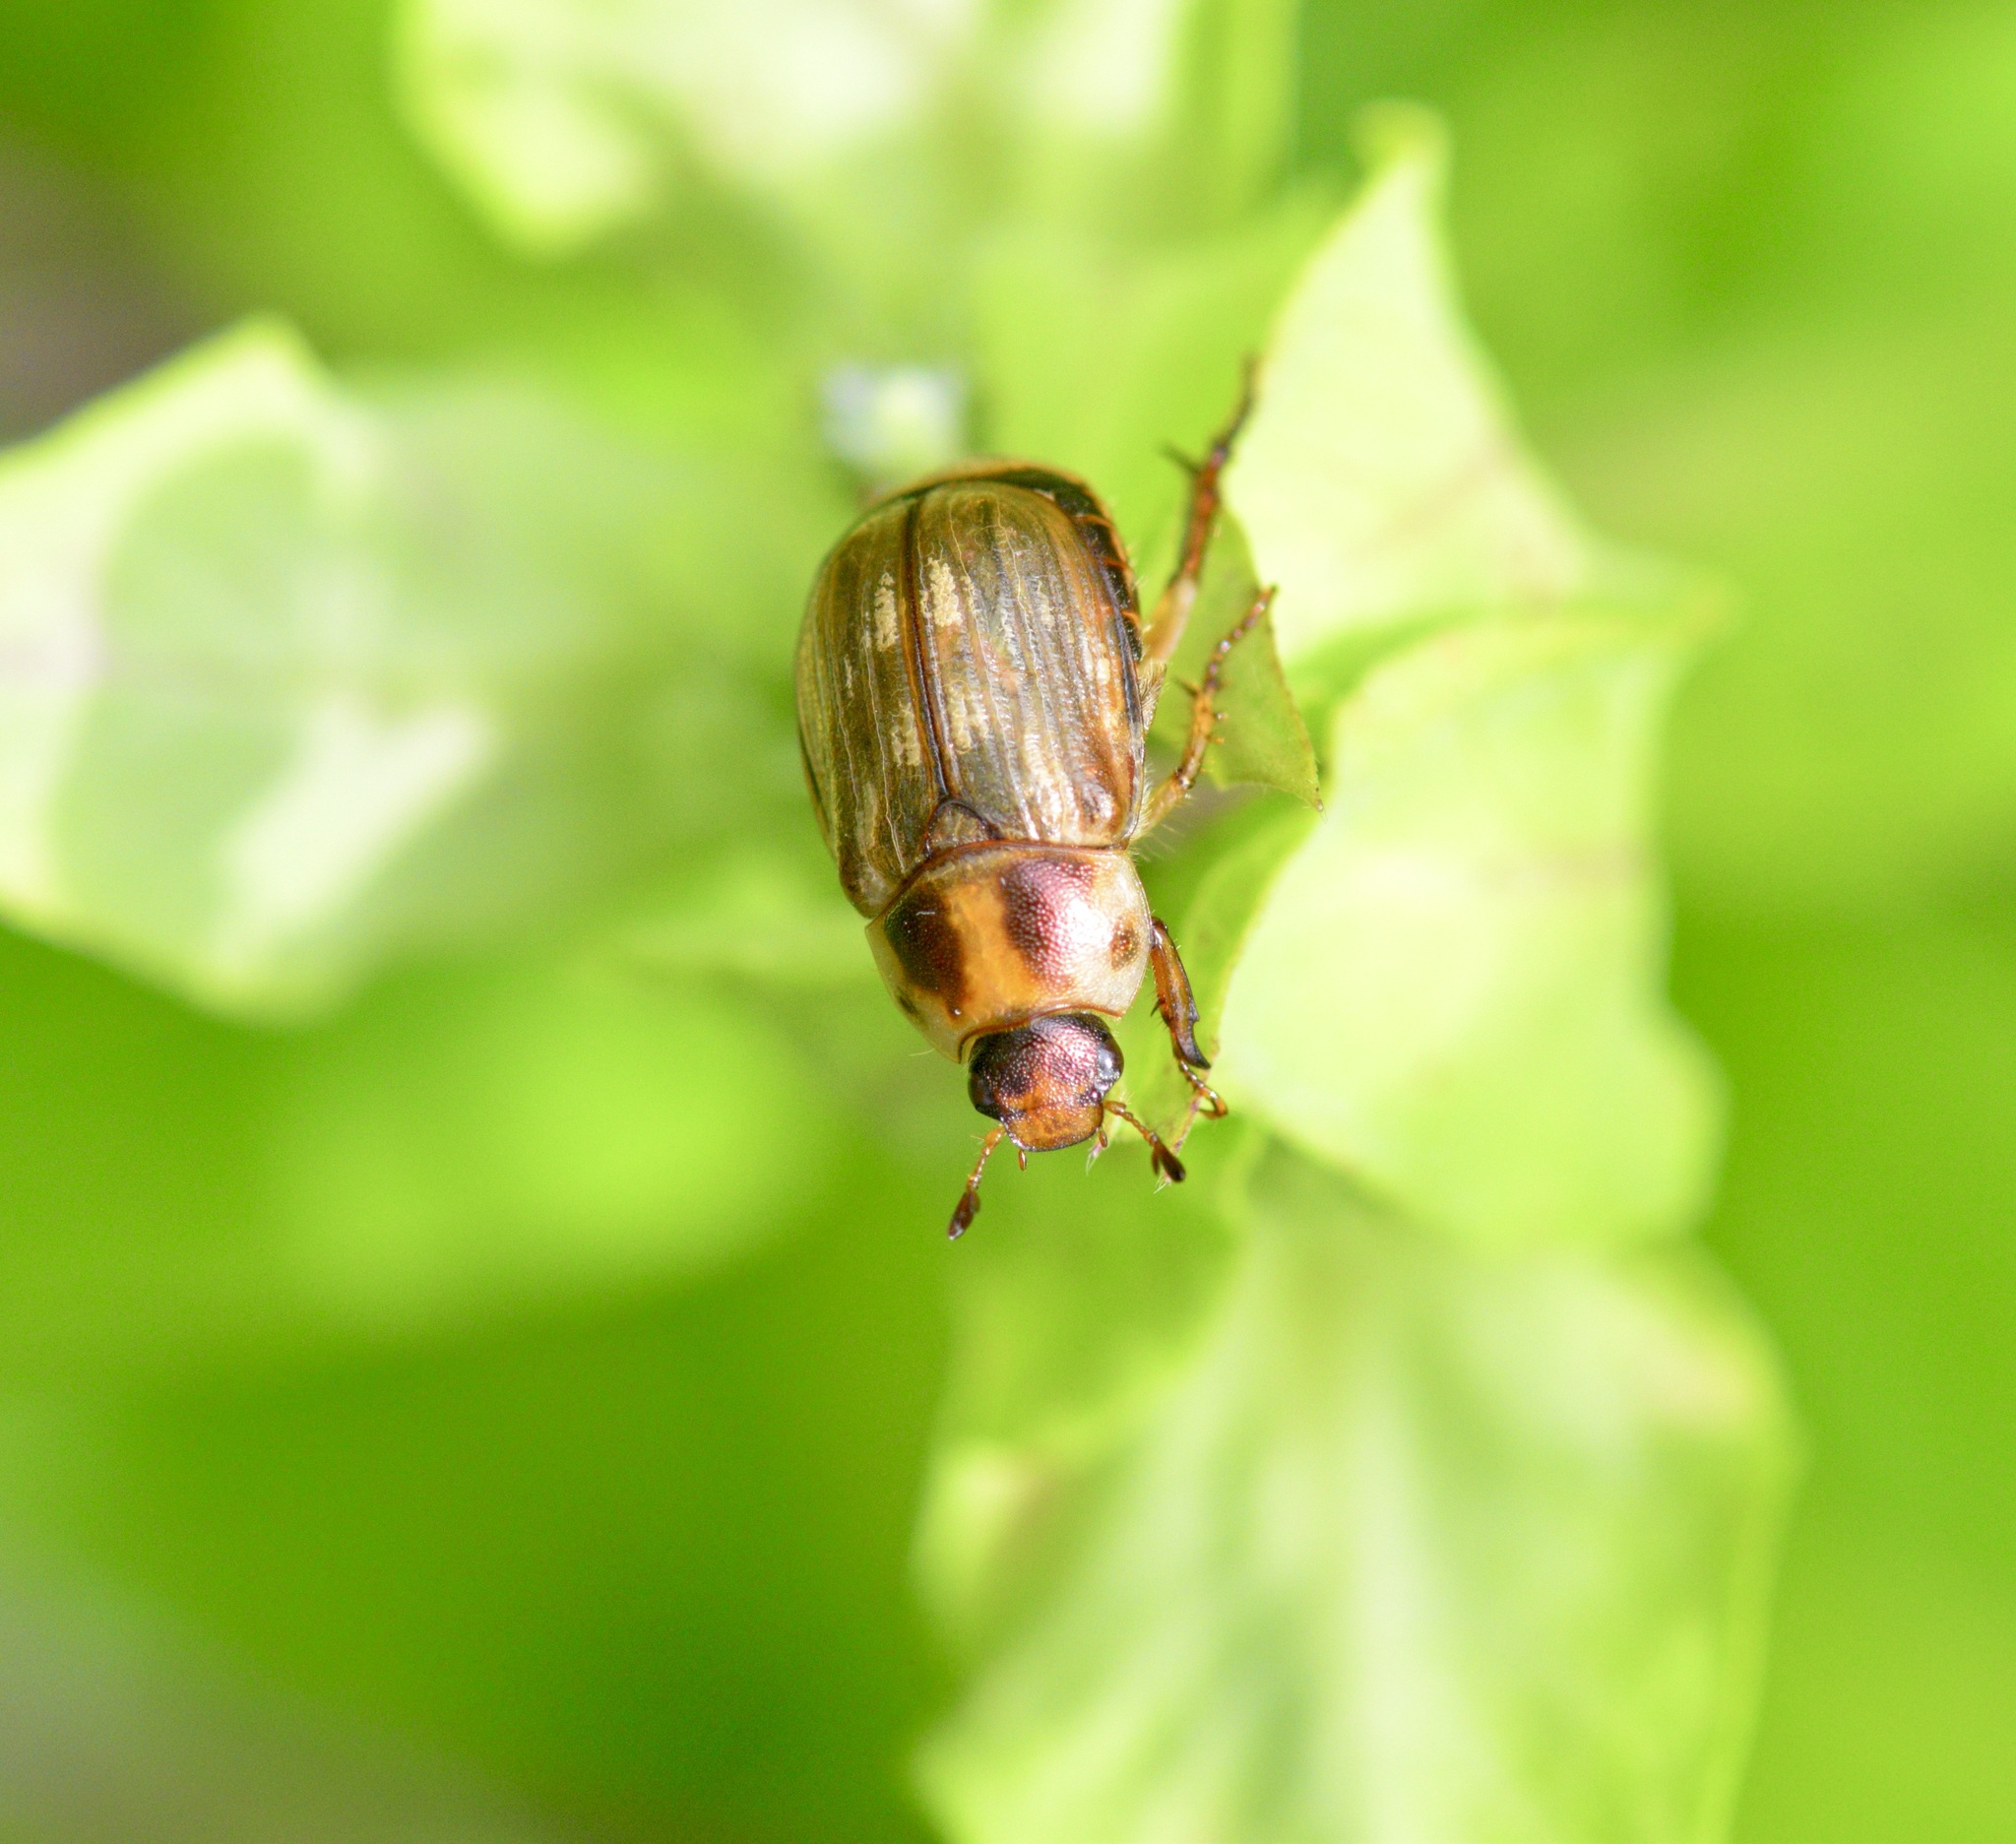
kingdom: Animalia
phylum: Arthropoda
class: Insecta
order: Coleoptera
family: Scarabaeidae
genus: Exomala
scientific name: Exomala orientalis
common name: Oriental beetle
